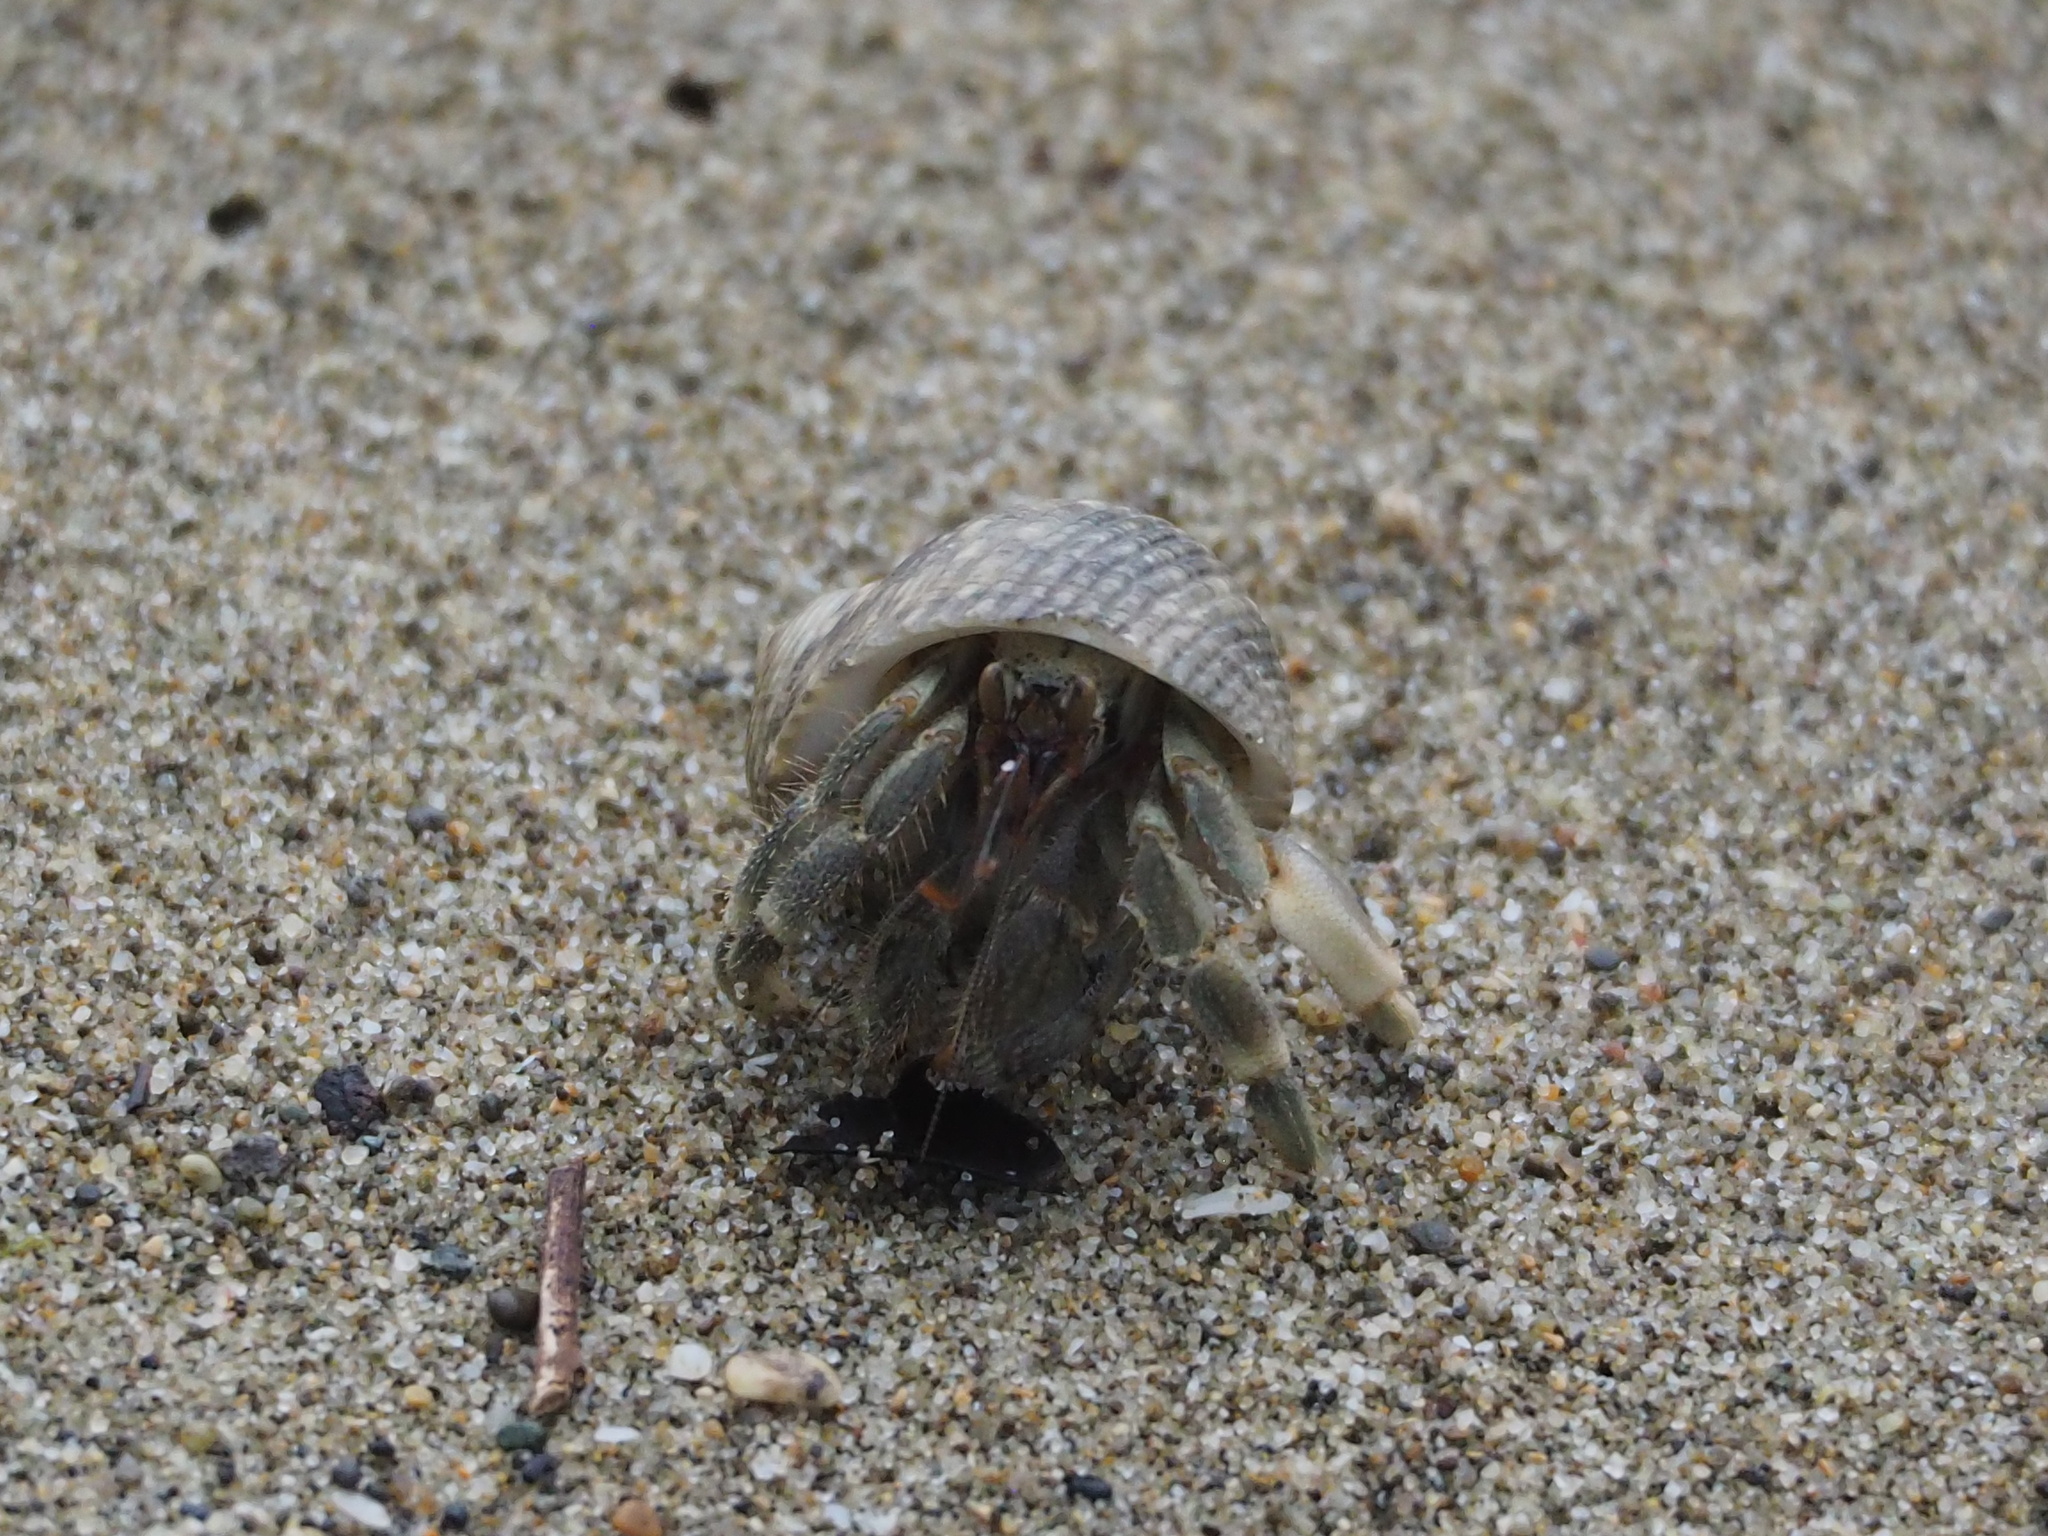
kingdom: Animalia
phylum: Arthropoda
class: Malacostraca
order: Decapoda
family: Coenobitidae
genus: Coenobita
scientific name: Coenobita rugosus
